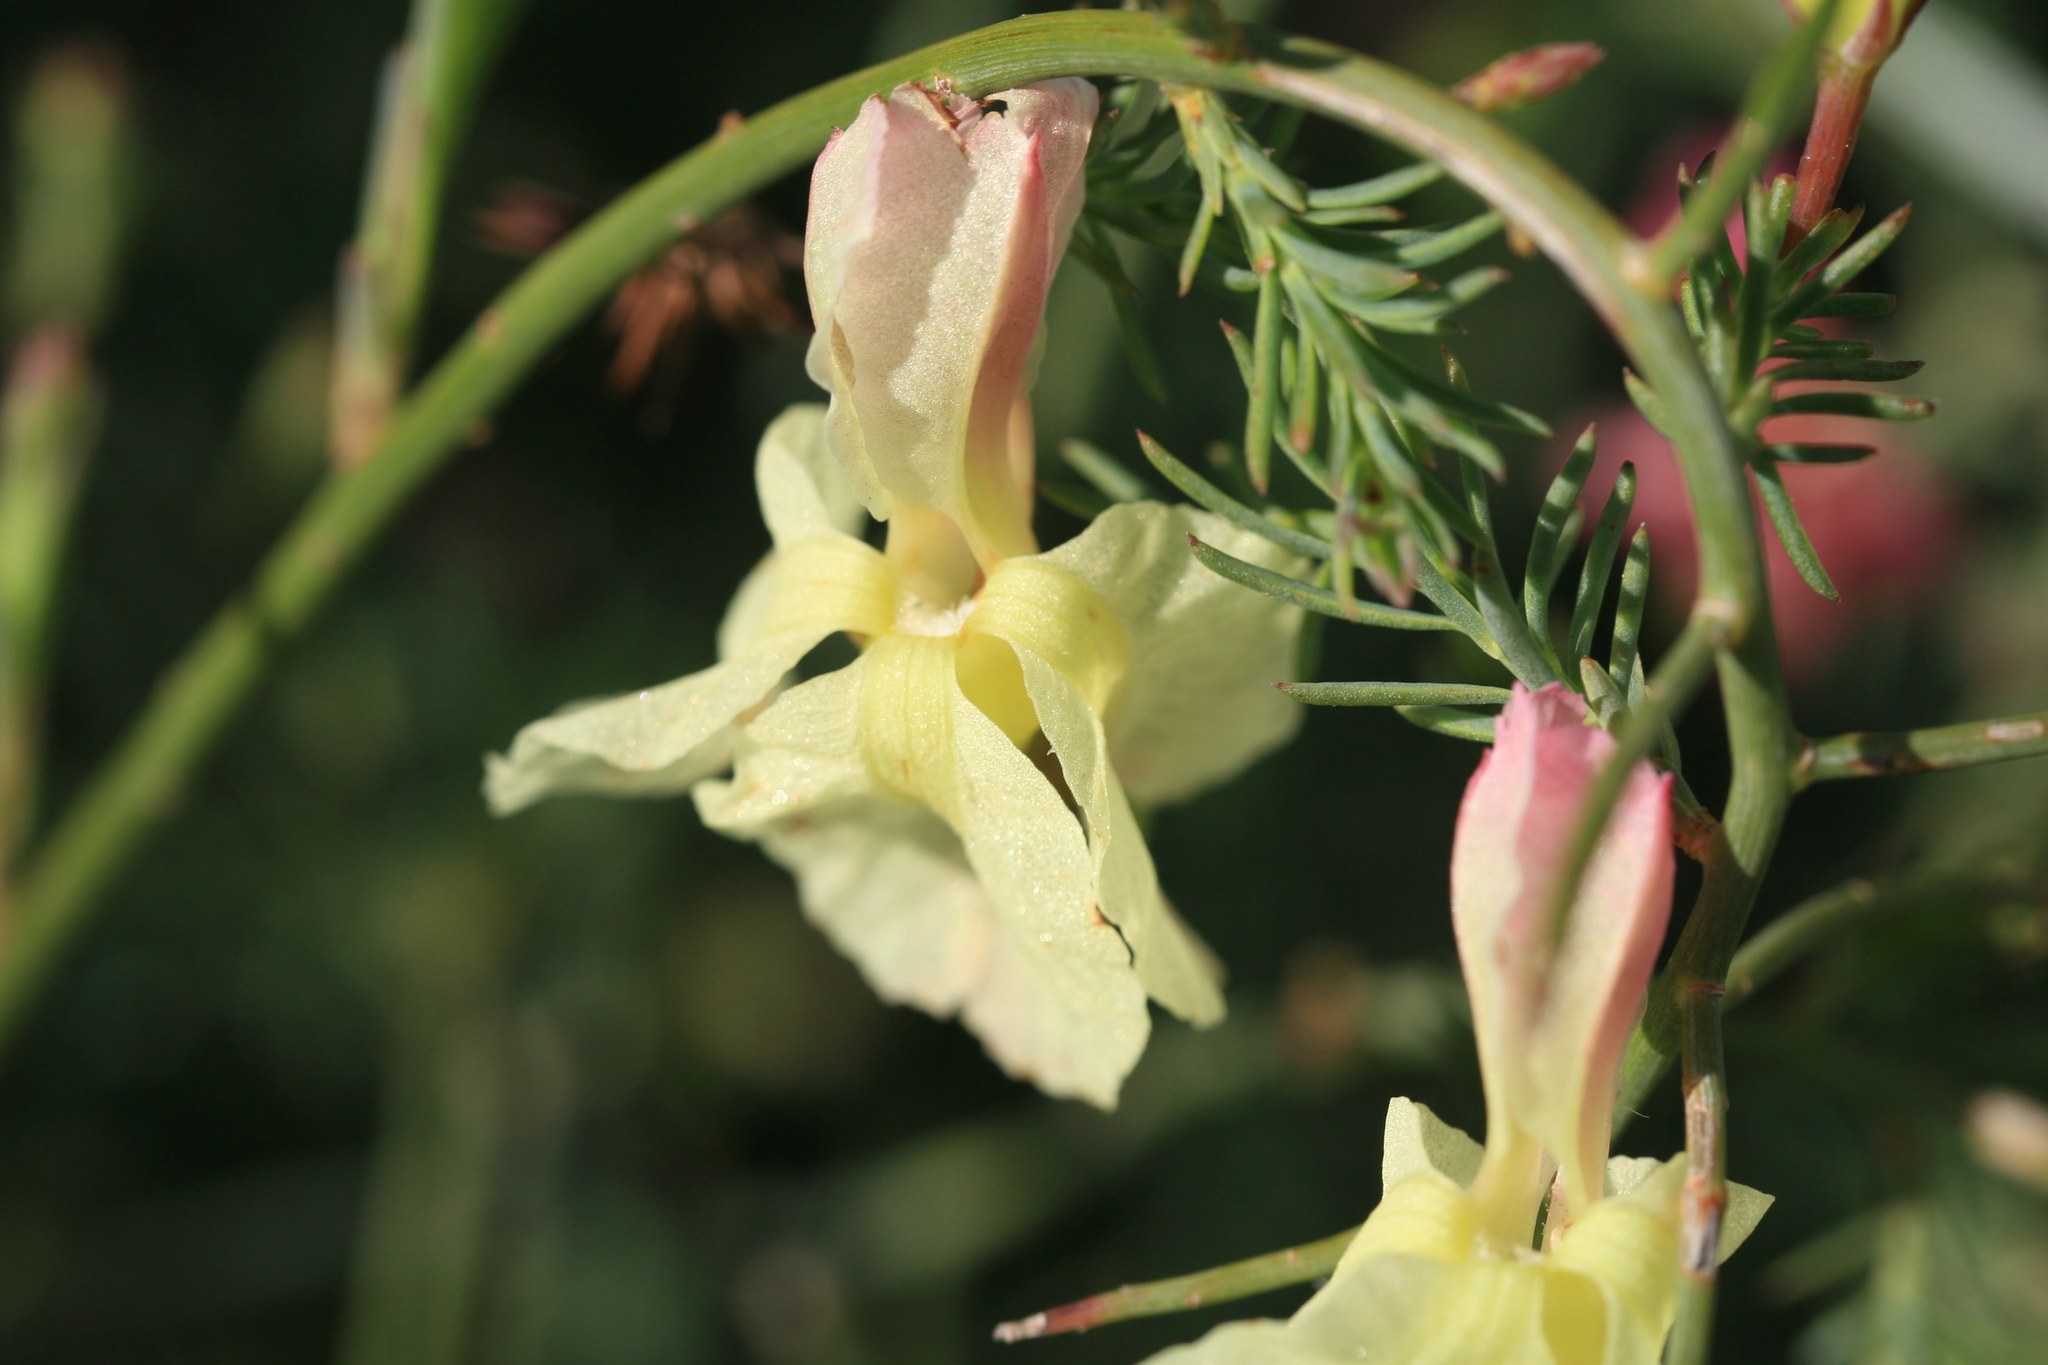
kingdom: Plantae
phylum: Tracheophyta
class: Magnoliopsida
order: Asterales
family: Goodeniaceae
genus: Lechenaultia
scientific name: Lechenaultia linarioides
